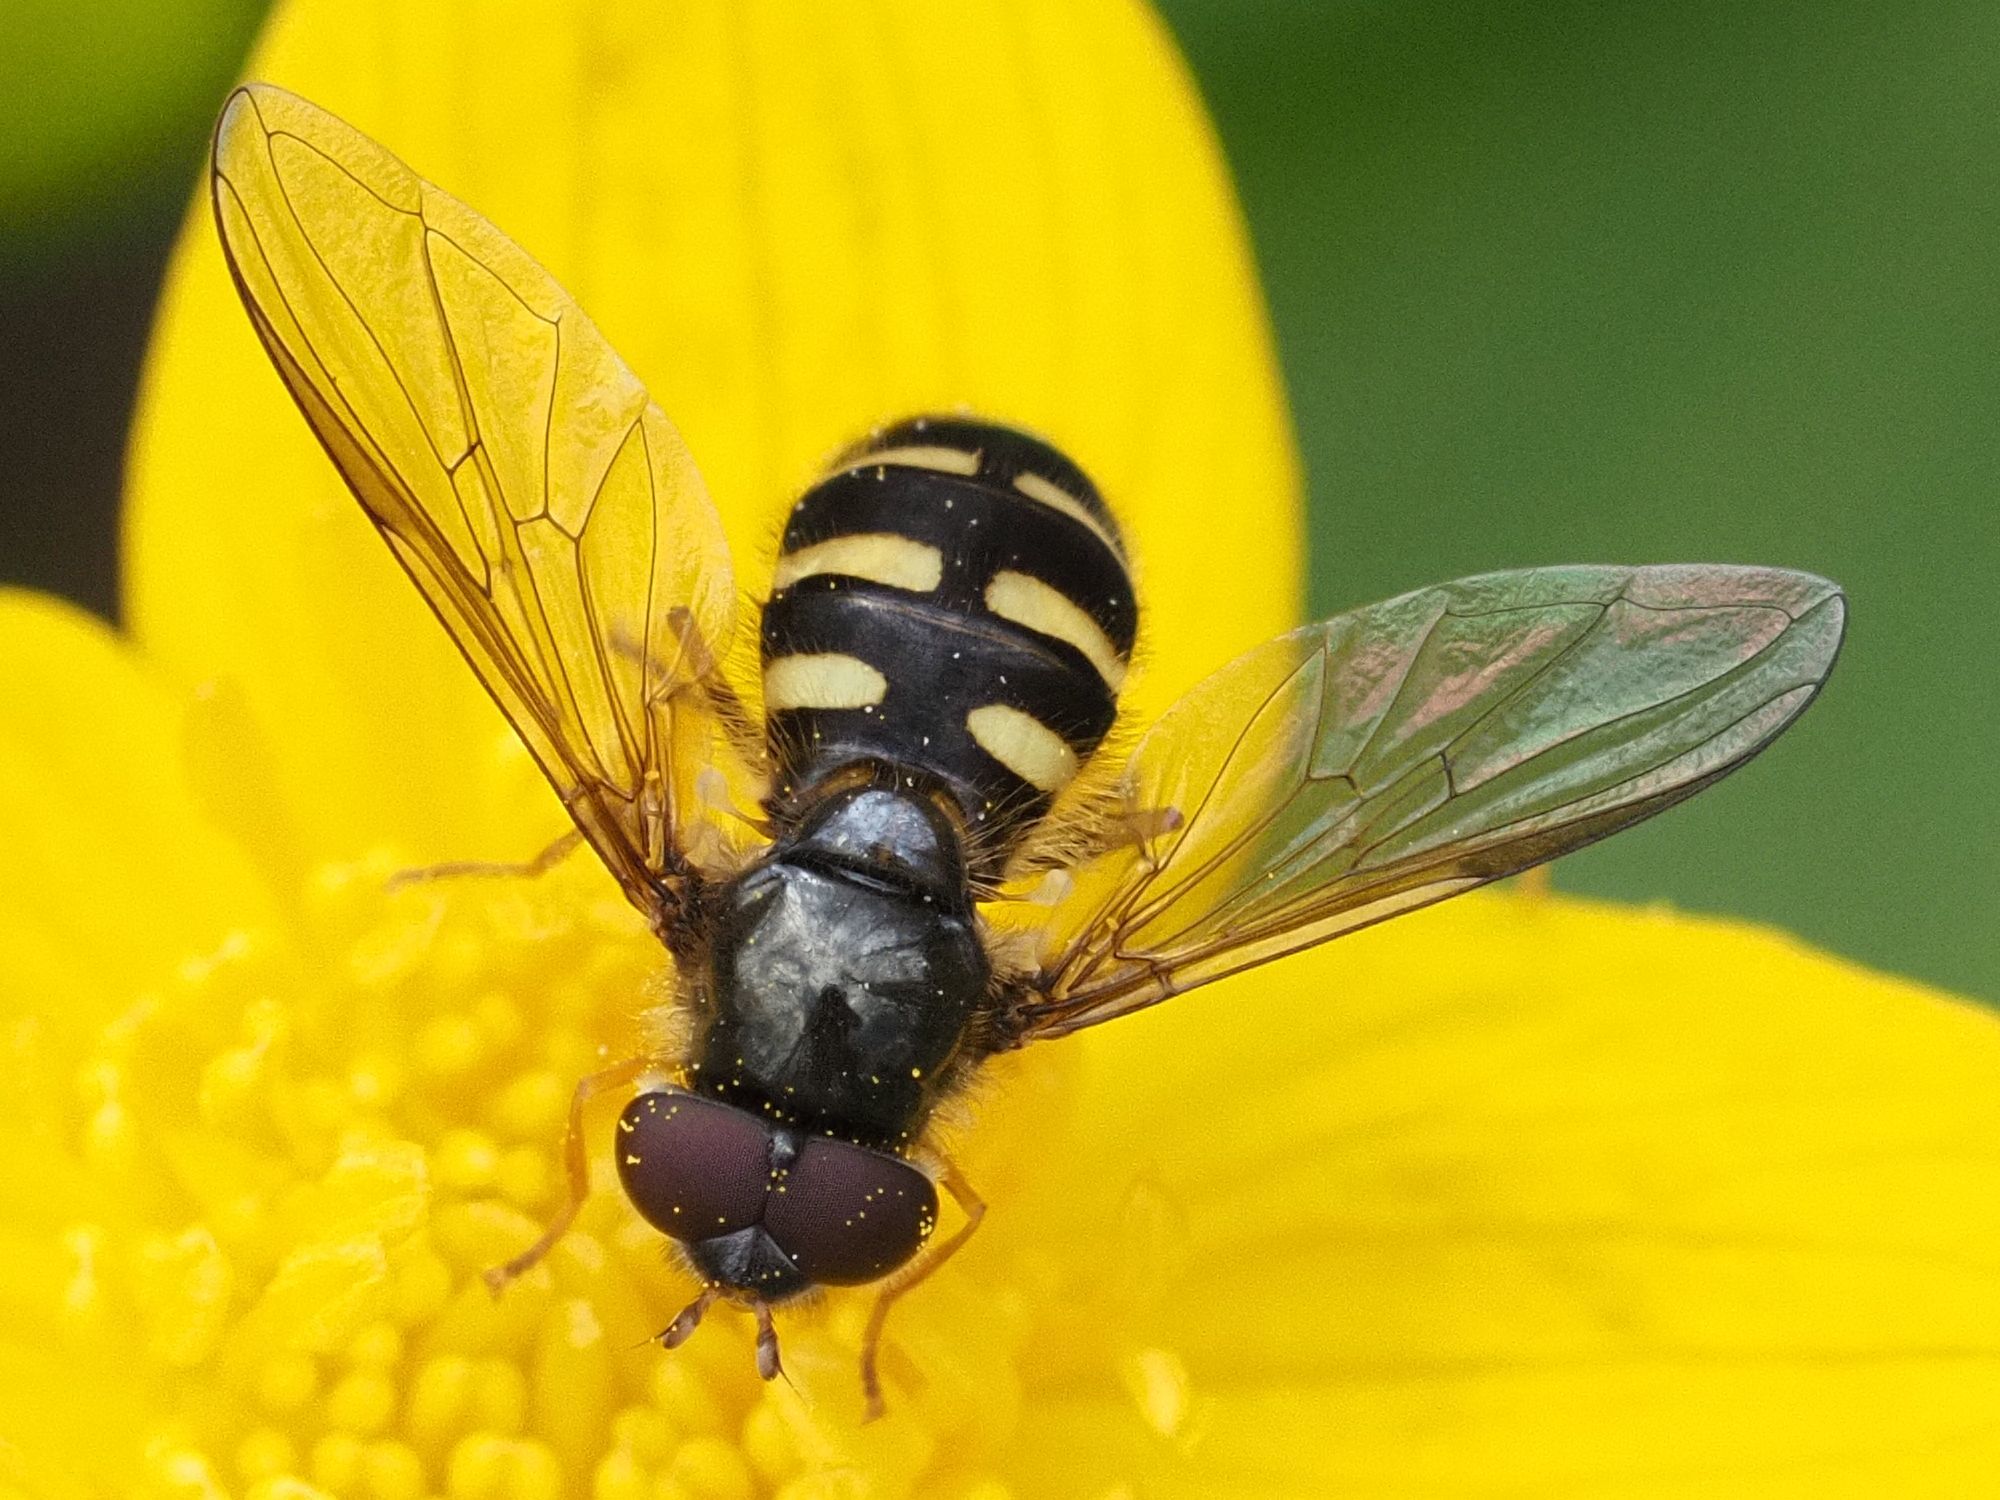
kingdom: Animalia
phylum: Arthropoda
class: Insecta
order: Diptera
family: Syrphidae
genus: Dasysyrphus
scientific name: Dasysyrphus
